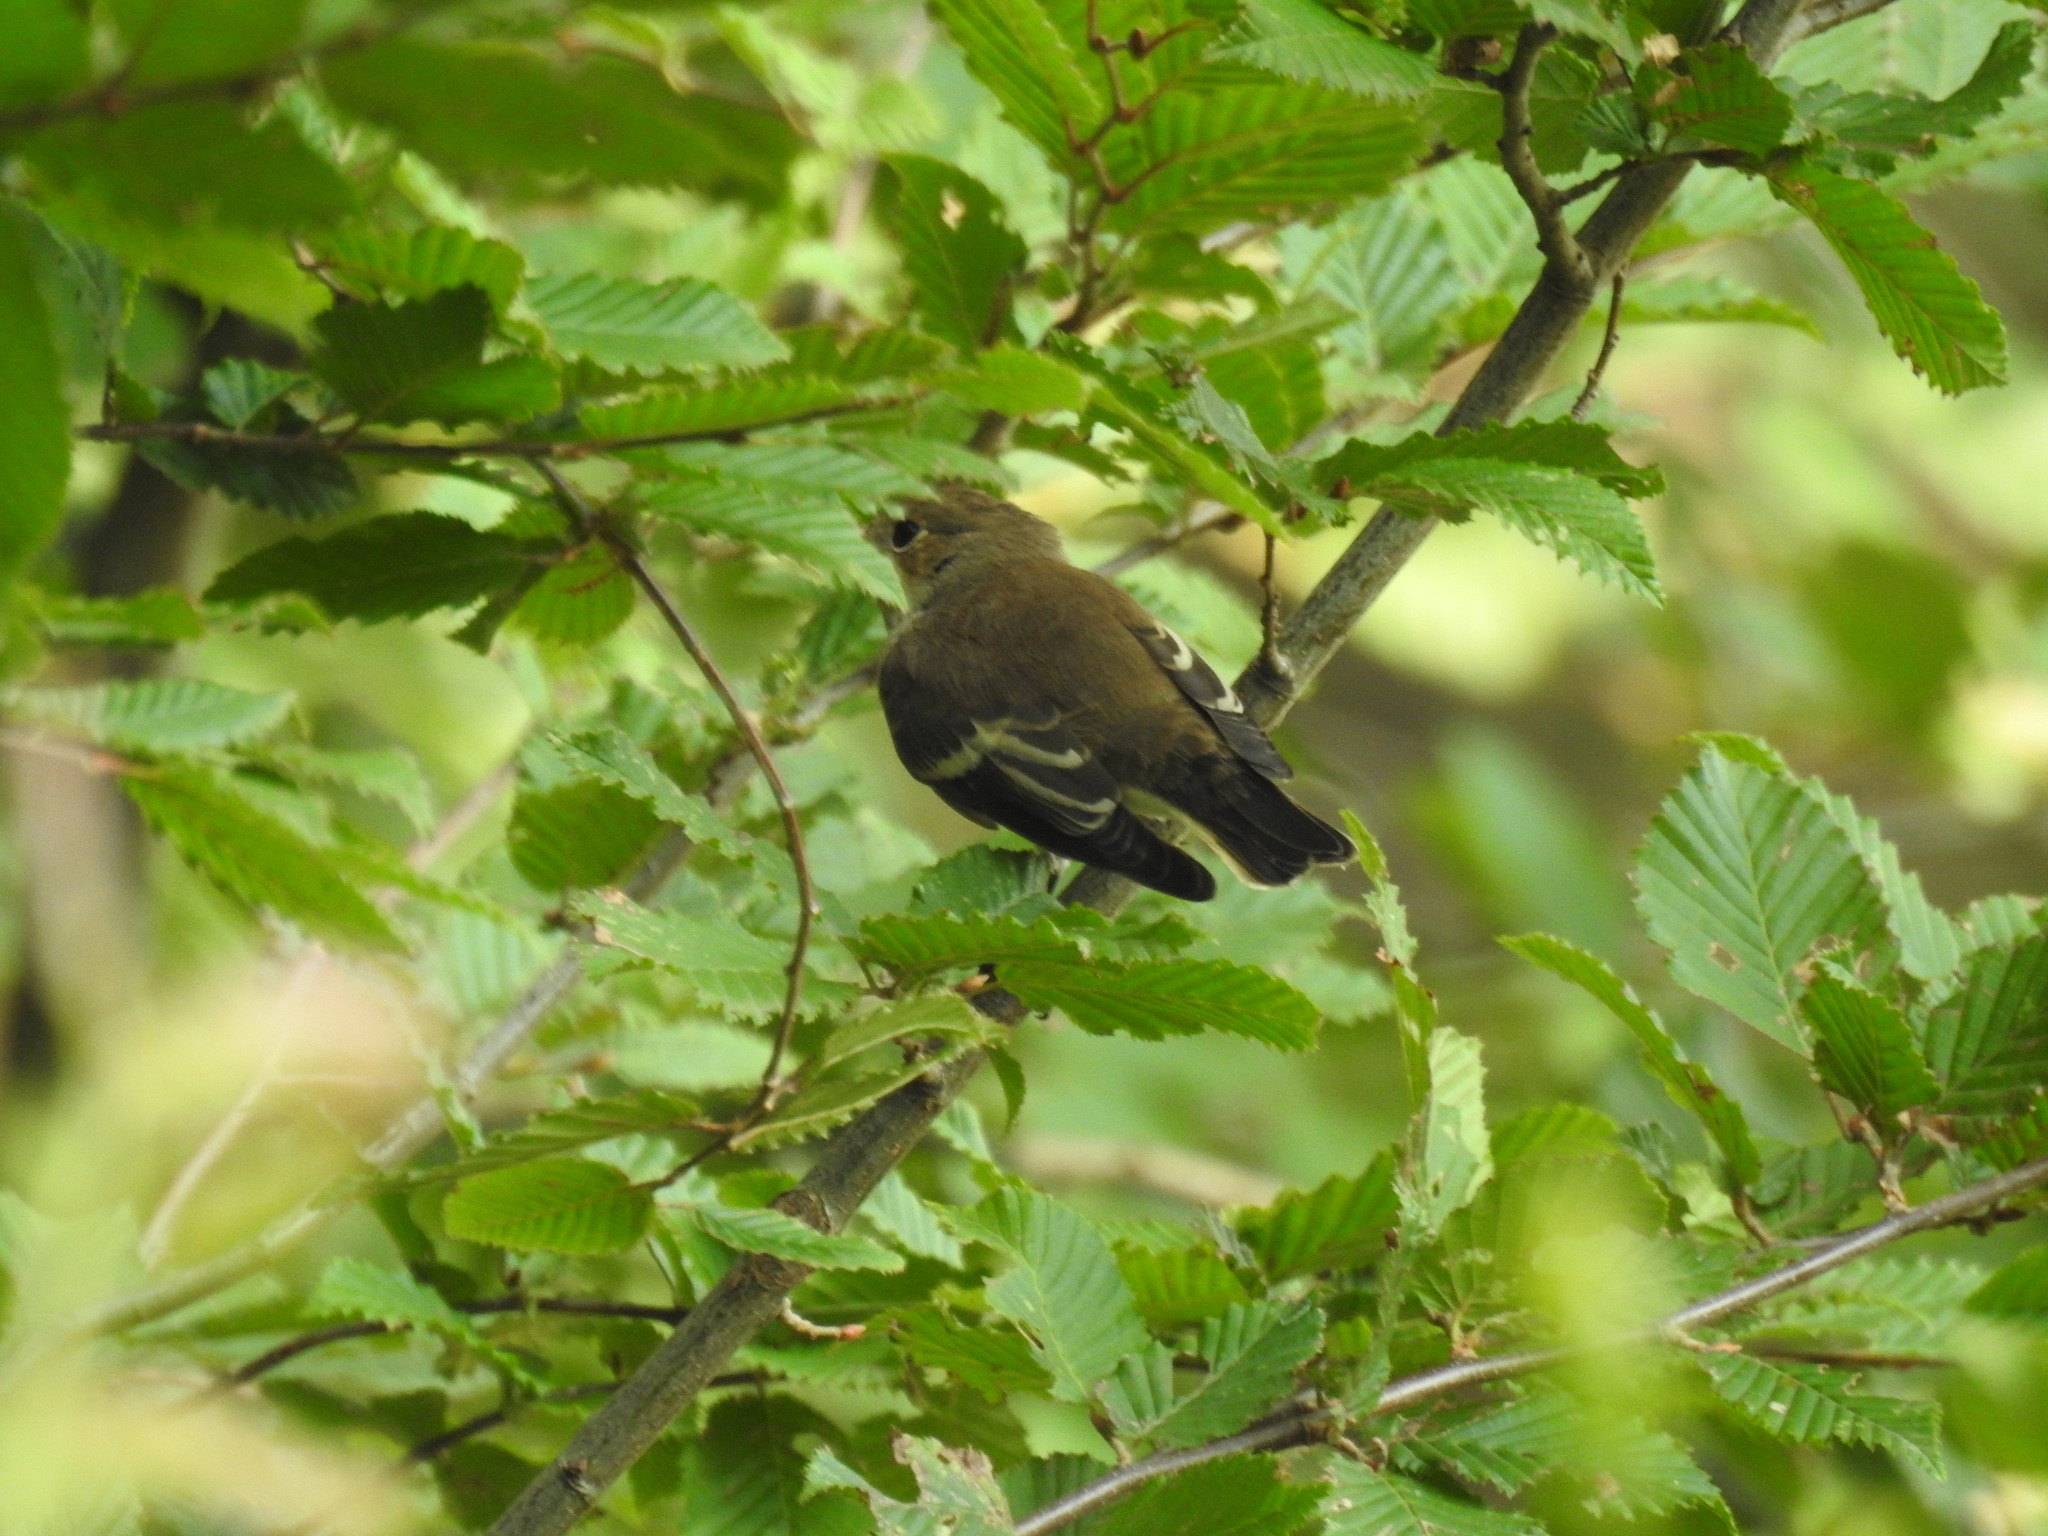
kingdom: Animalia
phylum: Chordata
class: Aves
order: Passeriformes
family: Muscicapidae
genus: Ficedula
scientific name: Ficedula hypoleuca
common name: European pied flycatcher
